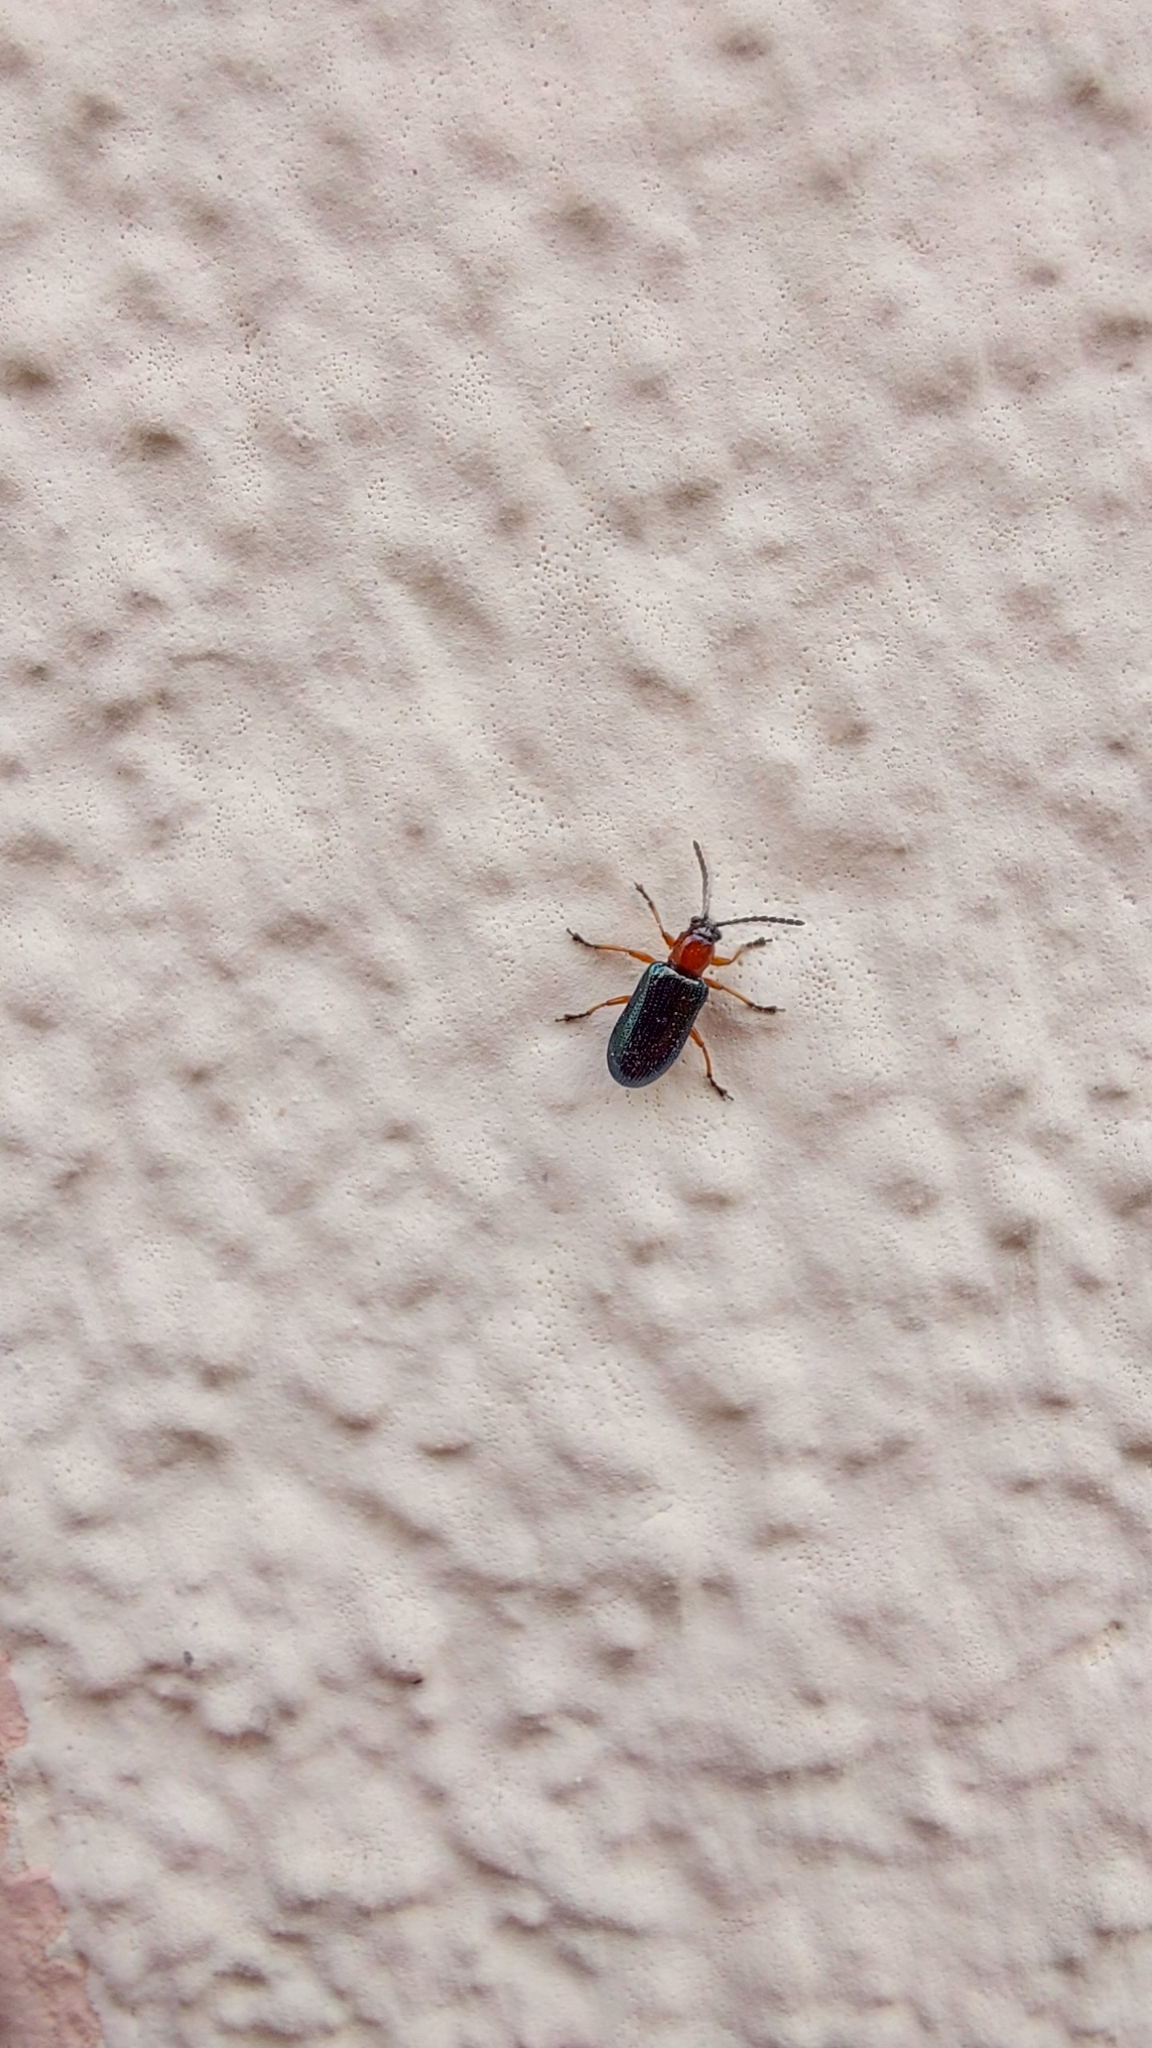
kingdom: Animalia
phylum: Arthropoda
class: Insecta
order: Coleoptera
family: Chrysomelidae
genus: Oulema
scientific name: Oulema
